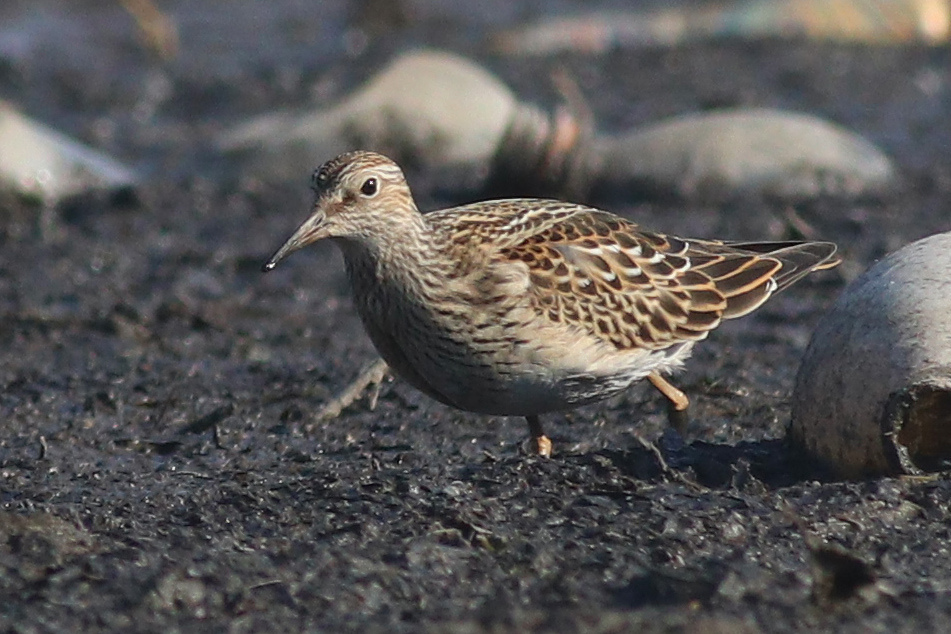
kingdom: Animalia
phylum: Chordata
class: Aves
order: Charadriiformes
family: Scolopacidae
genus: Calidris
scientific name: Calidris melanotos
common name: Pectoral sandpiper
